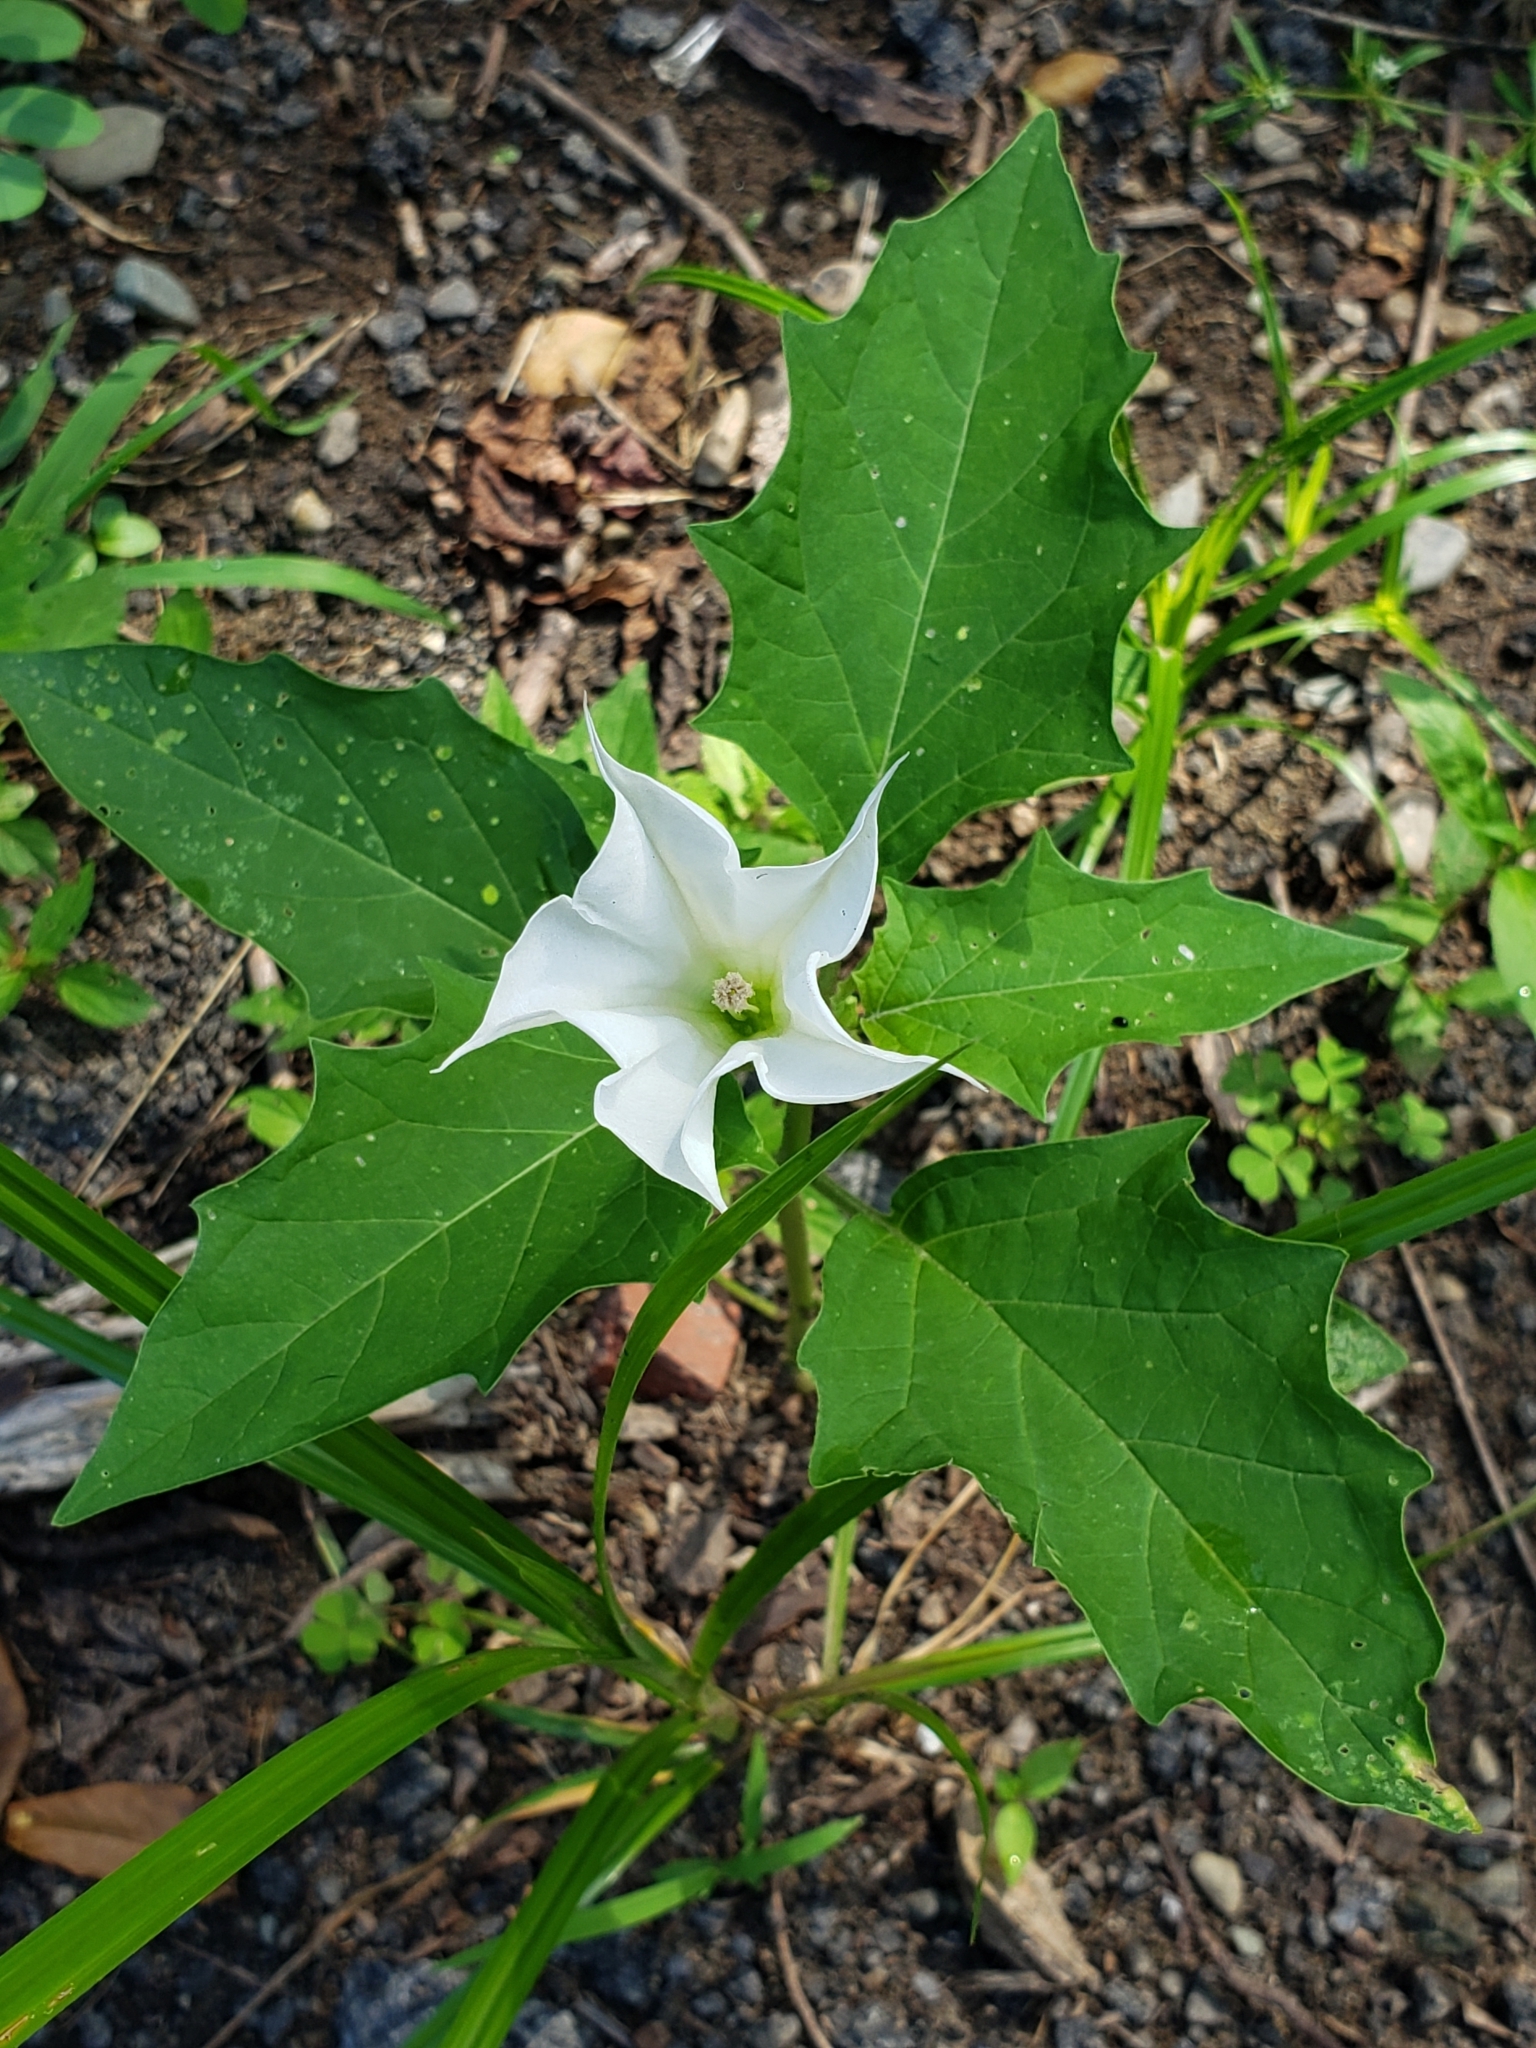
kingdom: Plantae
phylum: Tracheophyta
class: Magnoliopsida
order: Solanales
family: Solanaceae
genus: Datura
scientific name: Datura stramonium
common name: Thorn-apple
